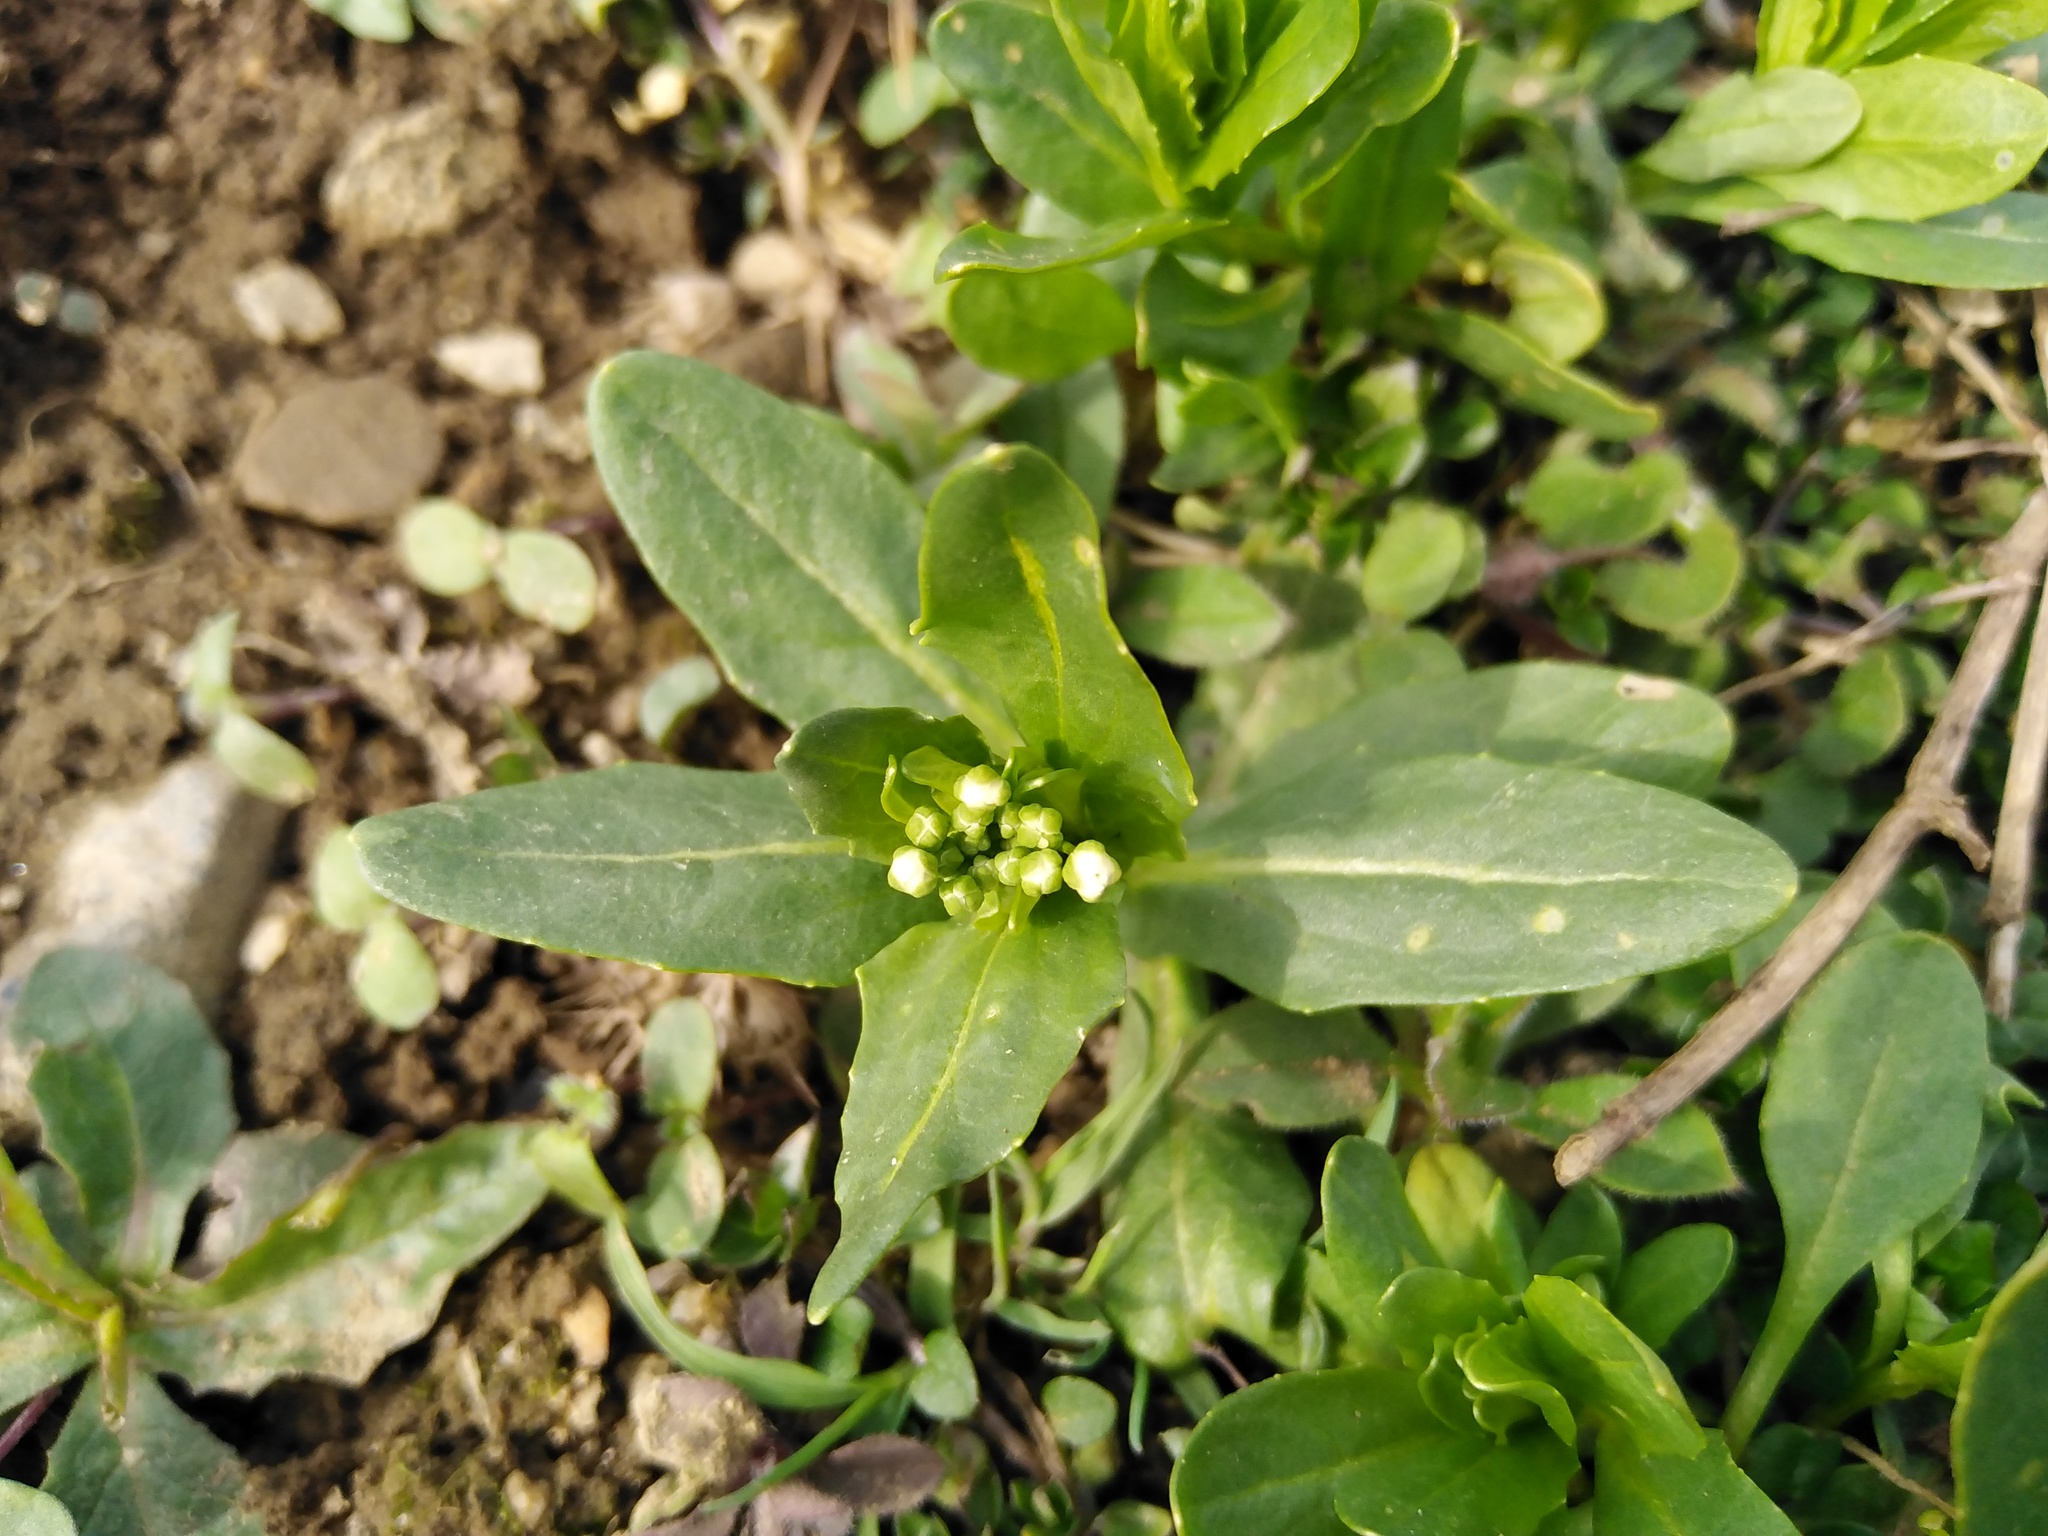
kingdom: Plantae
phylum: Tracheophyta
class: Magnoliopsida
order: Brassicales
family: Brassicaceae
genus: Thlaspi
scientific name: Thlaspi arvense
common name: Field pennycress
